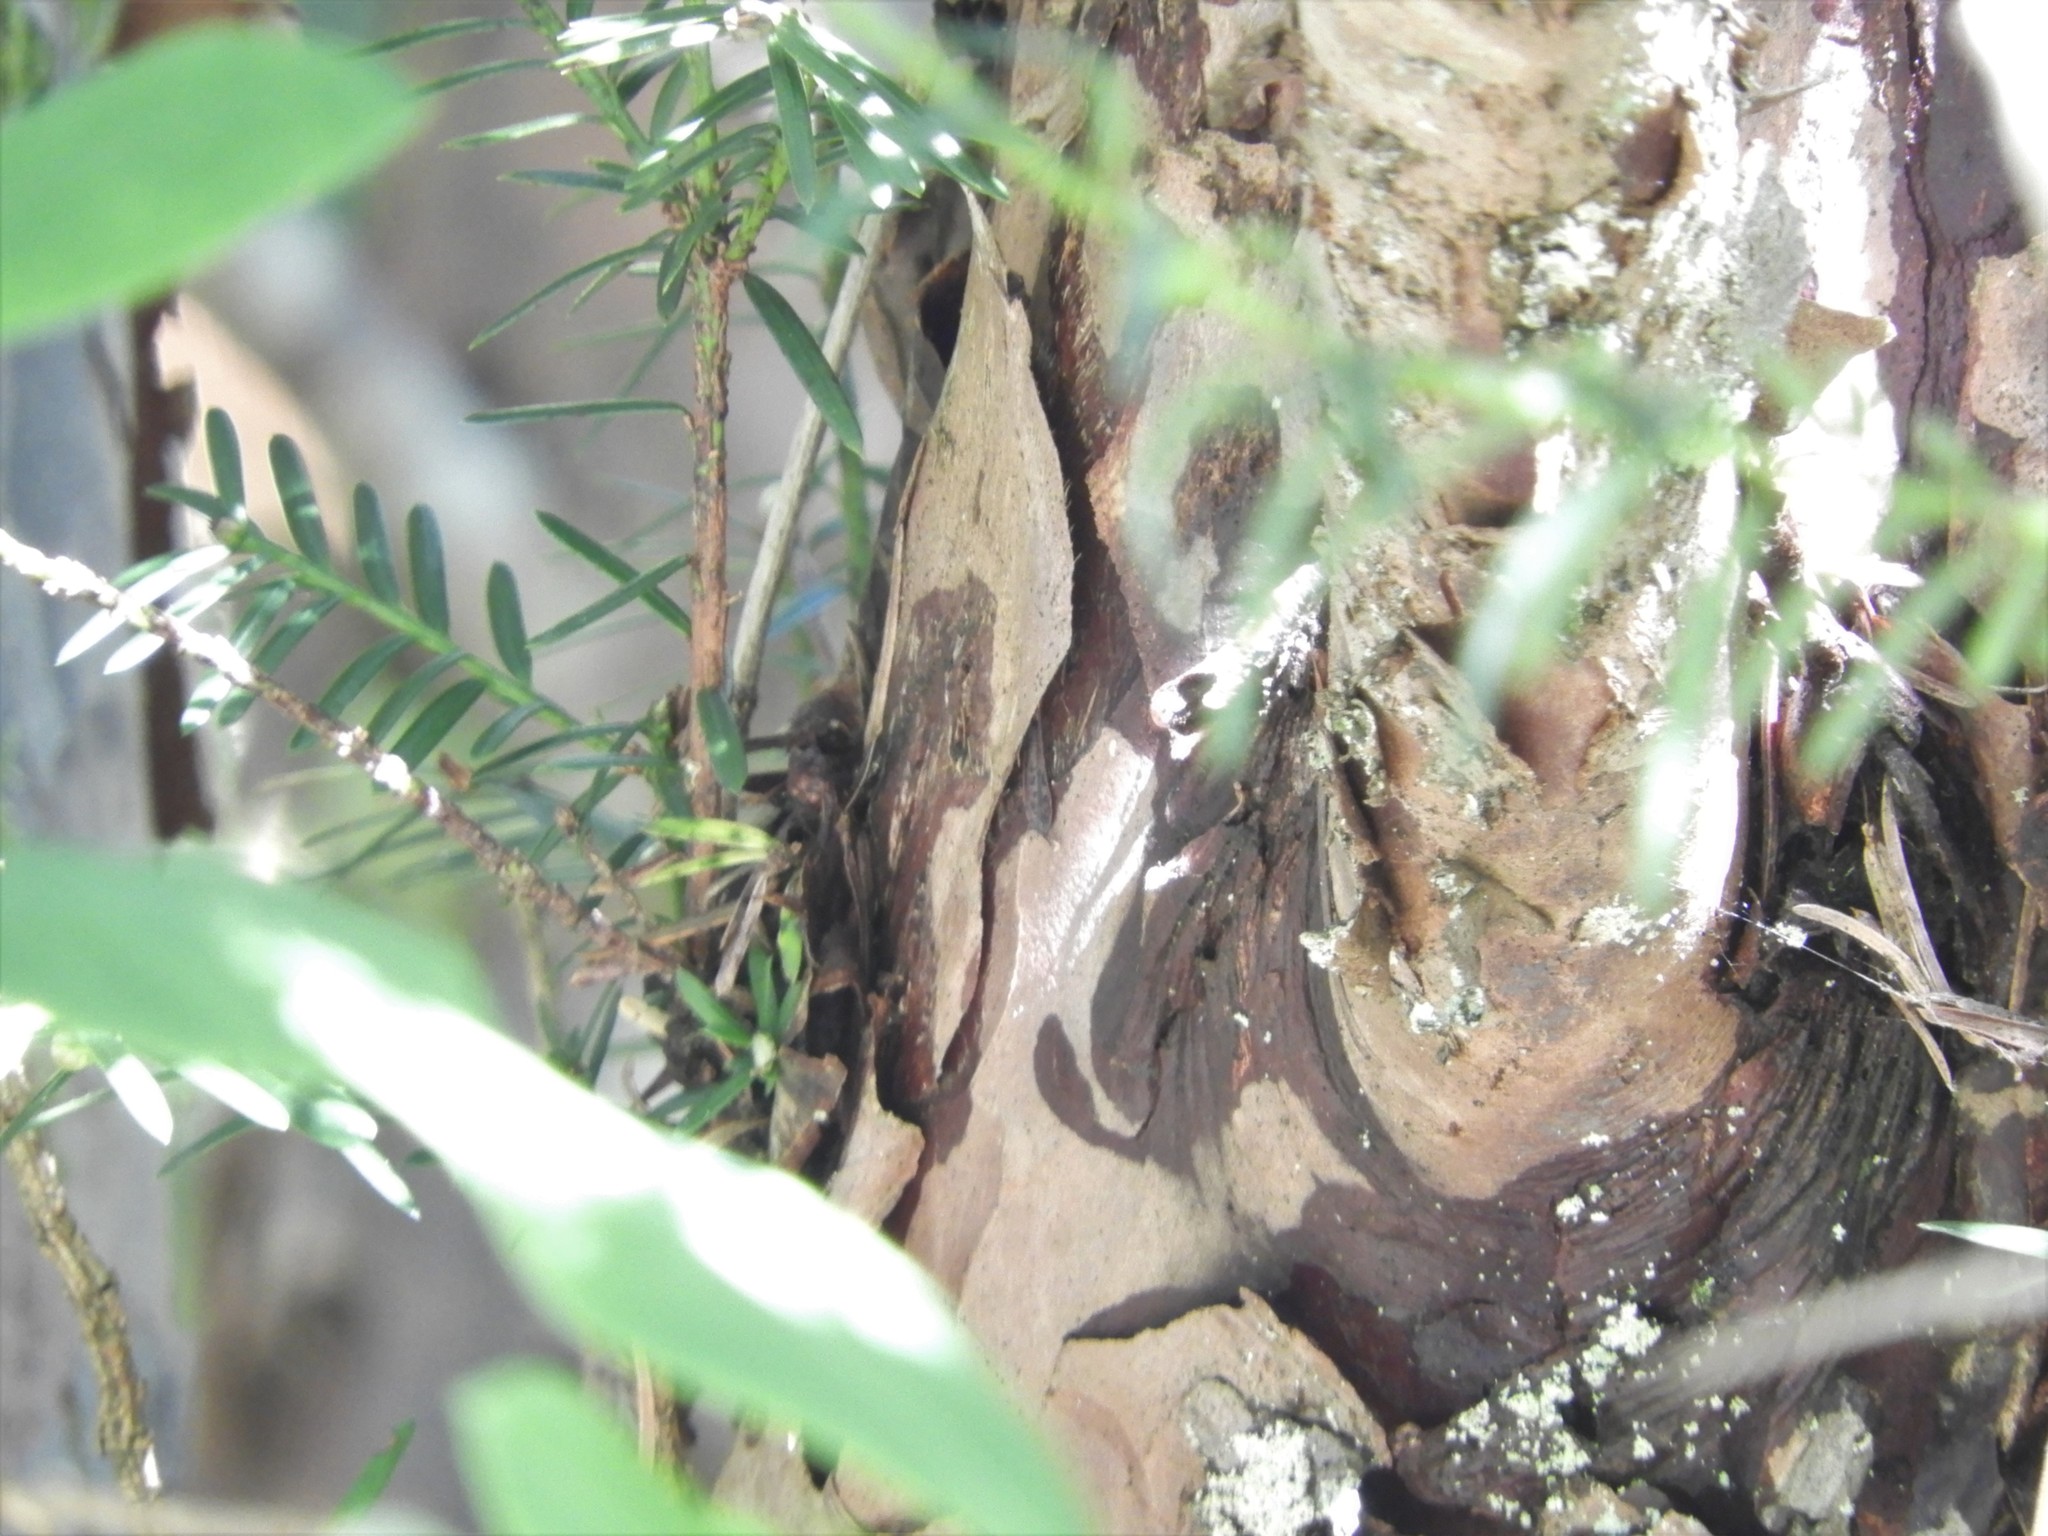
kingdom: Plantae
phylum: Tracheophyta
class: Pinopsida
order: Pinales
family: Taxaceae
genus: Taxus
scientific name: Taxus brevifolia
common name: Pacific yew
